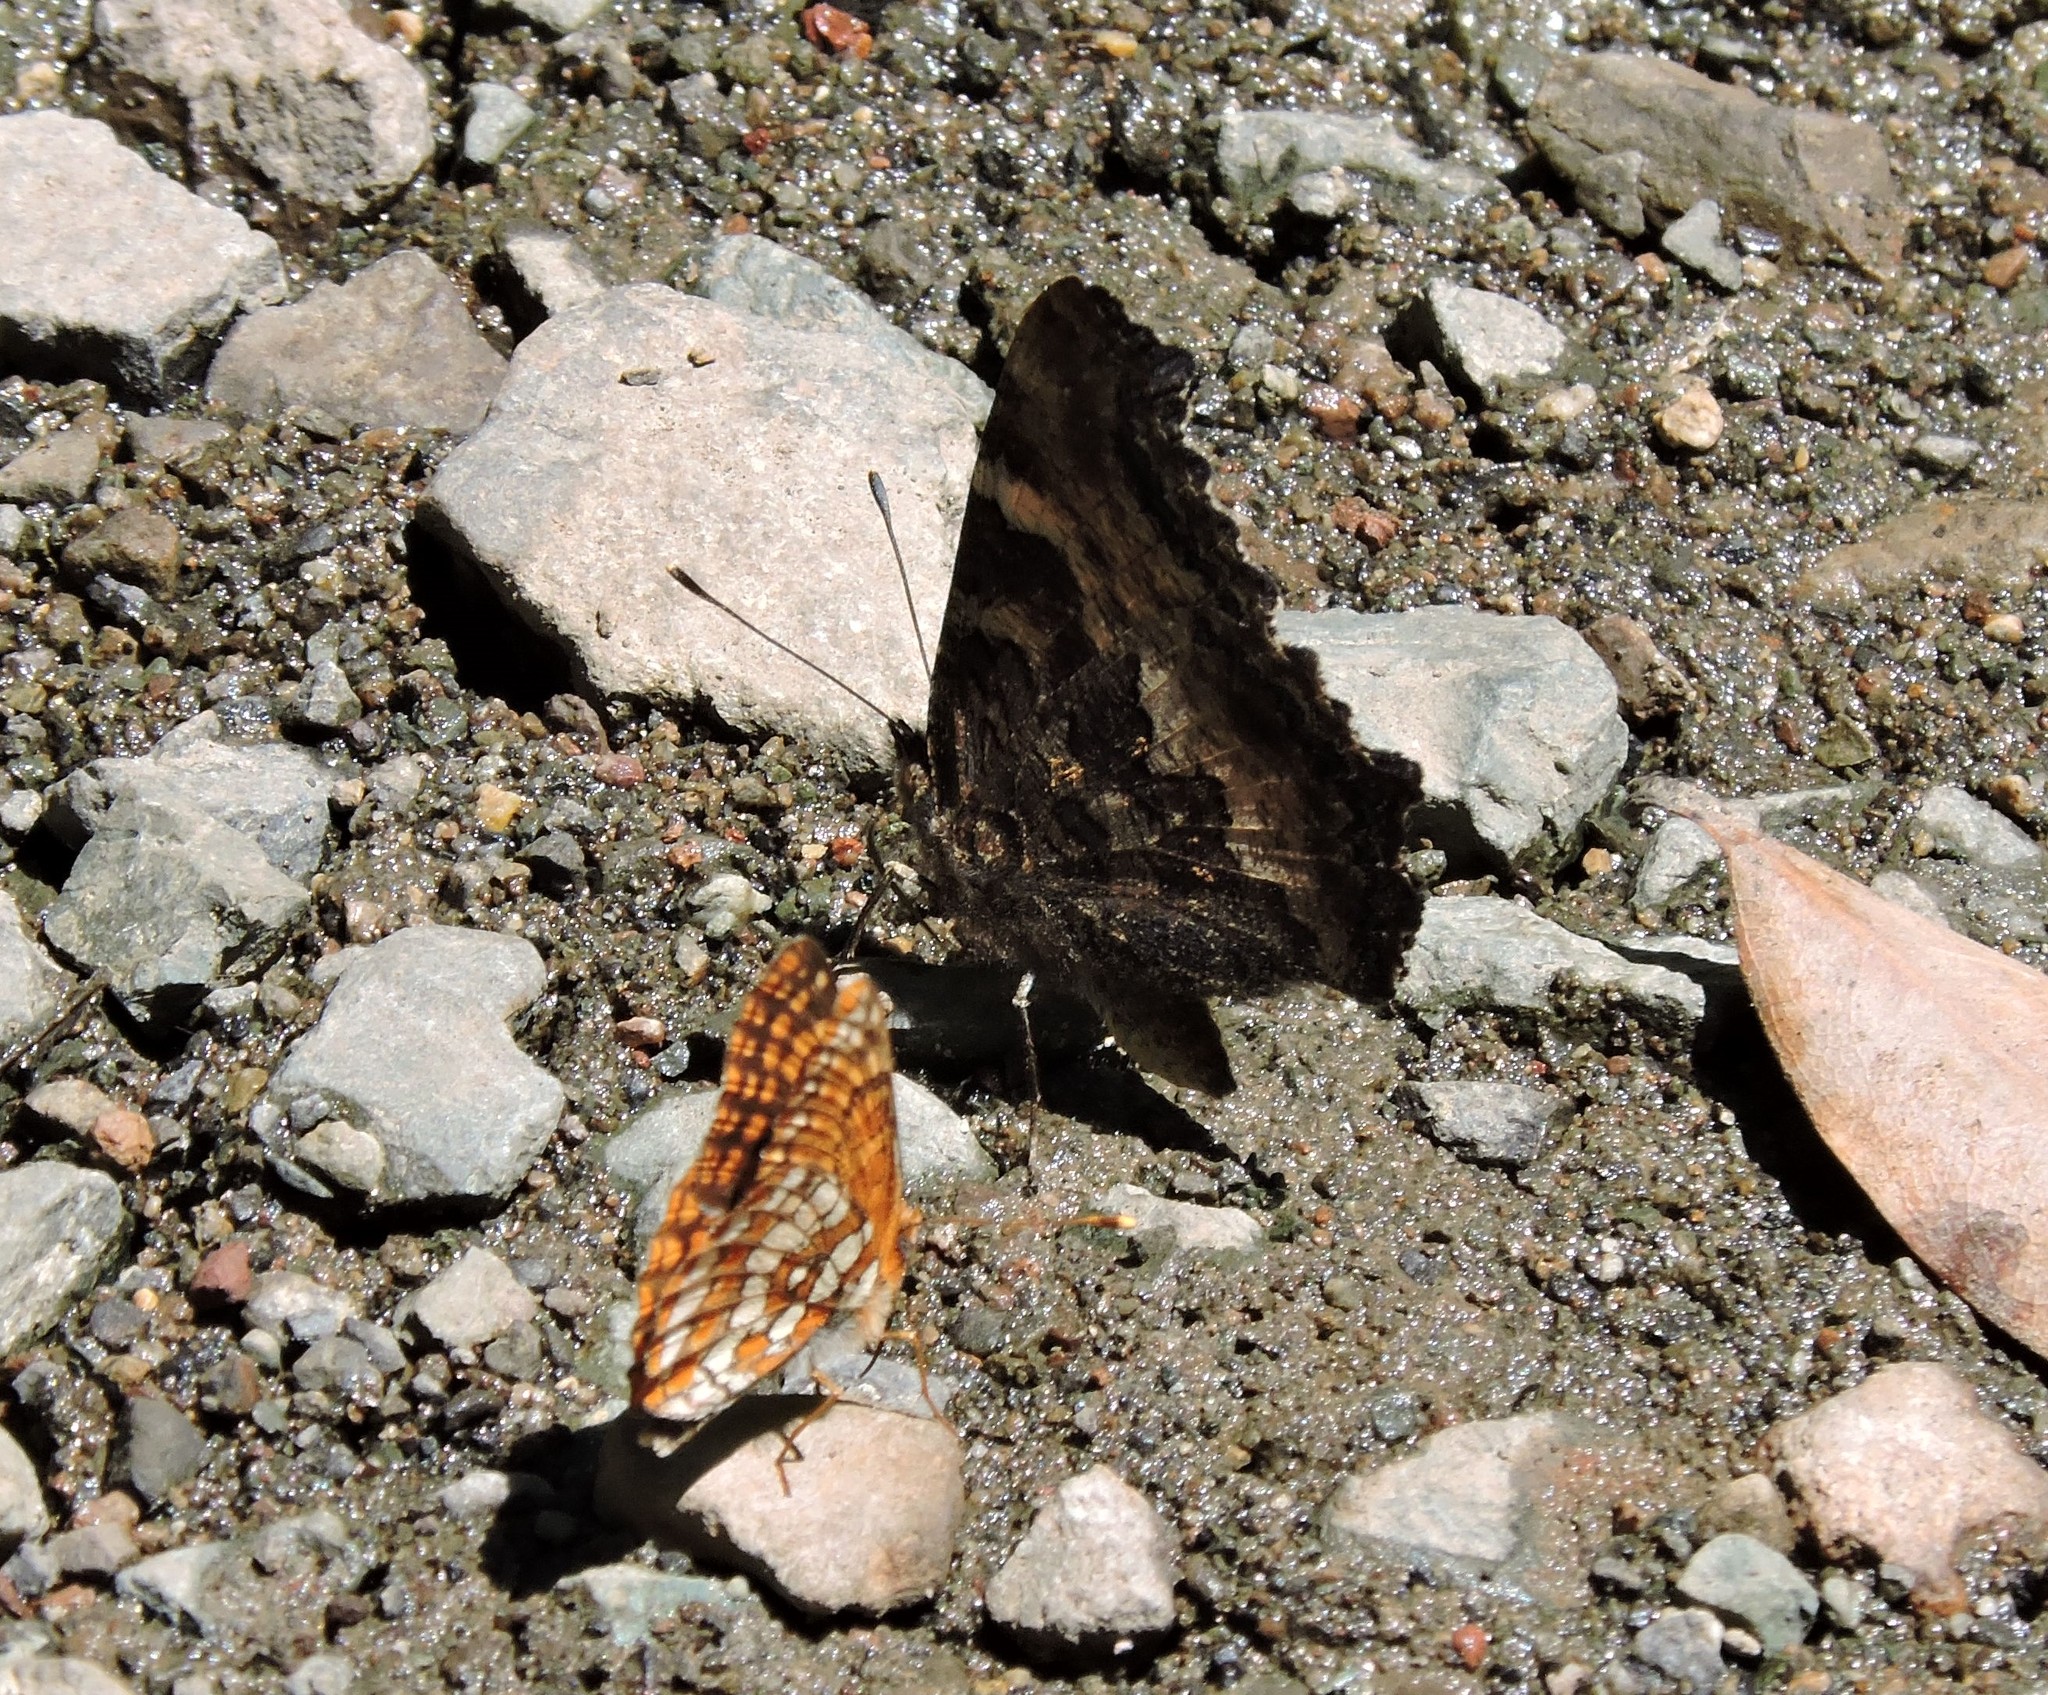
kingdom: Animalia
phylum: Arthropoda
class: Insecta
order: Lepidoptera
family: Nymphalidae
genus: Nymphalis
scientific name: Nymphalis californica
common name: California tortoiseshell
